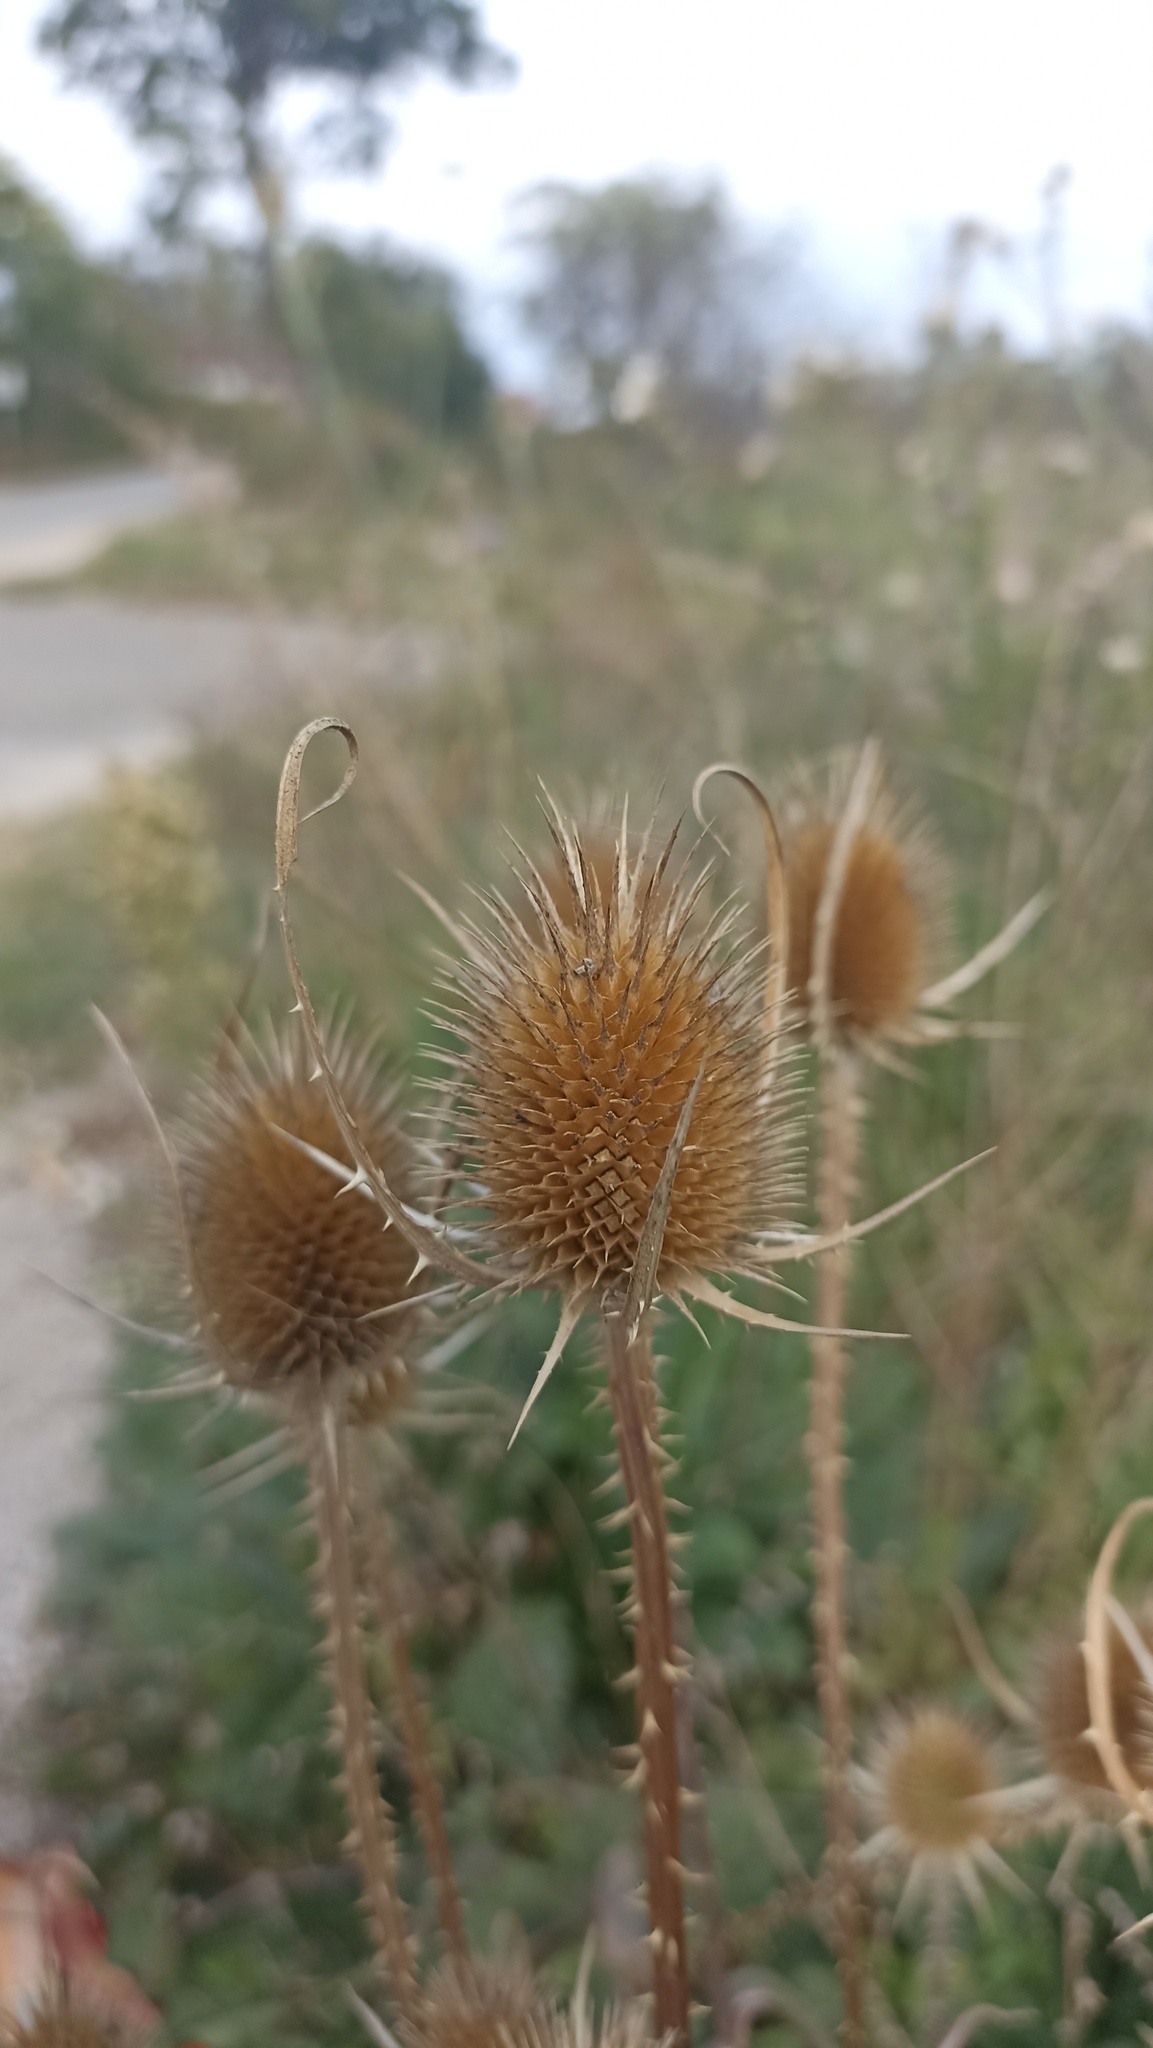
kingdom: Plantae
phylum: Tracheophyta
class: Magnoliopsida
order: Dipsacales
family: Caprifoliaceae
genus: Dipsacus
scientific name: Dipsacus fullonum
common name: Teasel
